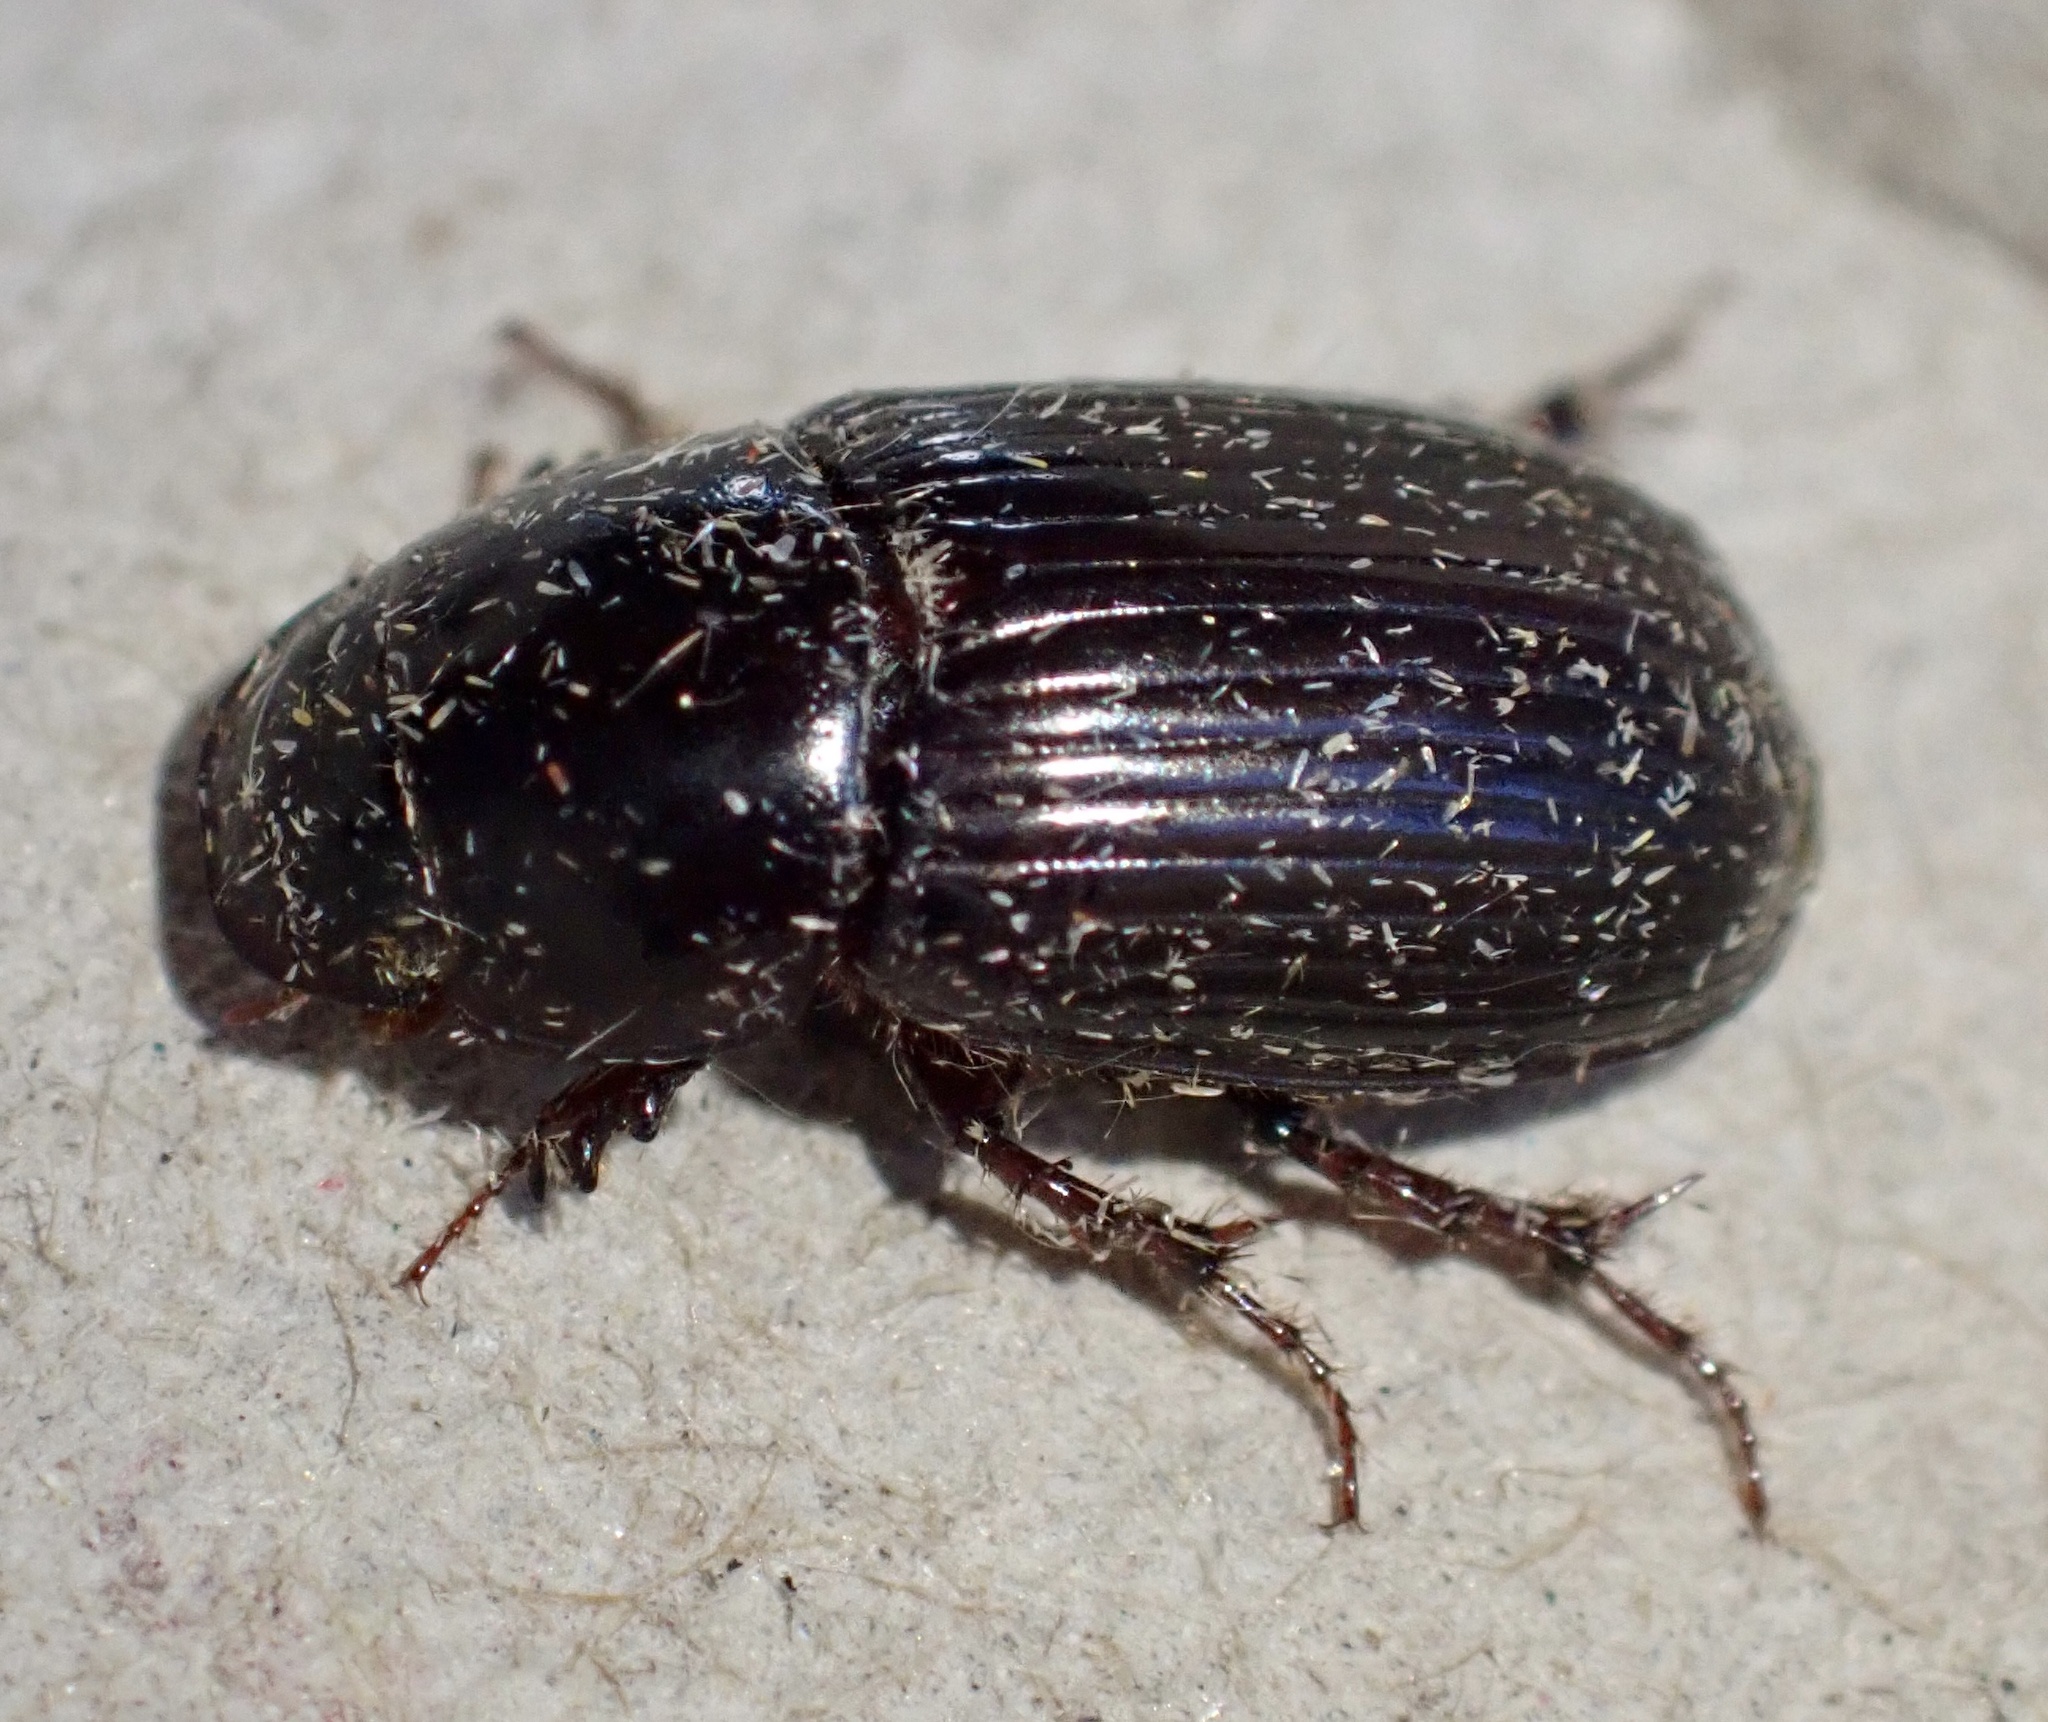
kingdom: Animalia
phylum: Arthropoda
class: Insecta
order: Coleoptera
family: Scarabaeidae
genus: Acrossus
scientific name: Acrossus rufipes
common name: Night-flying dung beetle
